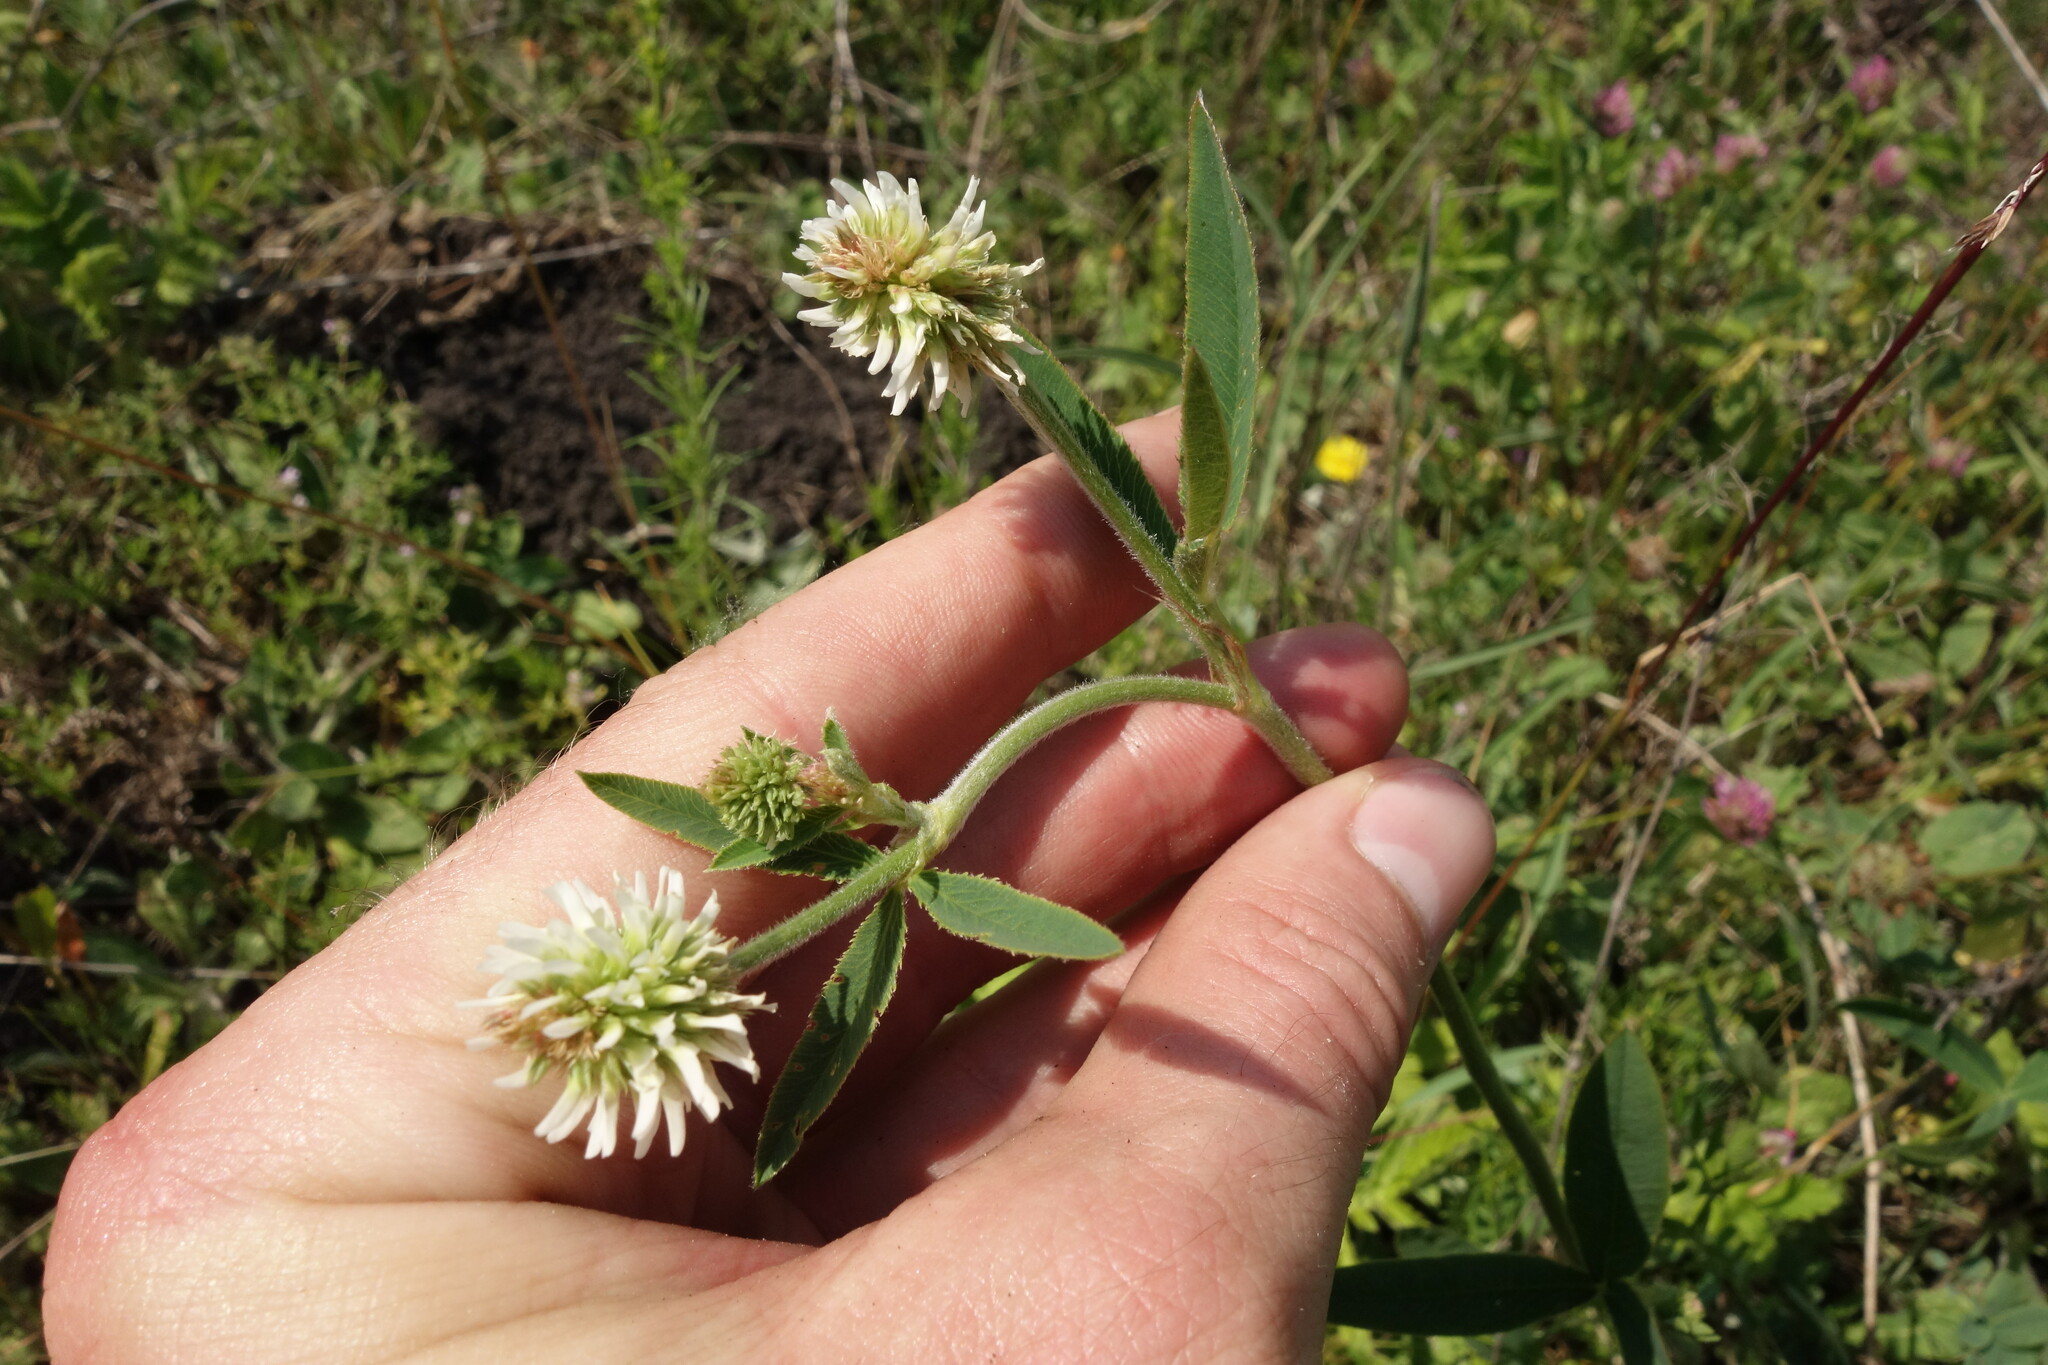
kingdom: Plantae
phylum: Tracheophyta
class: Magnoliopsida
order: Fabales
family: Fabaceae
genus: Trifolium
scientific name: Trifolium montanum
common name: Mountain clover
